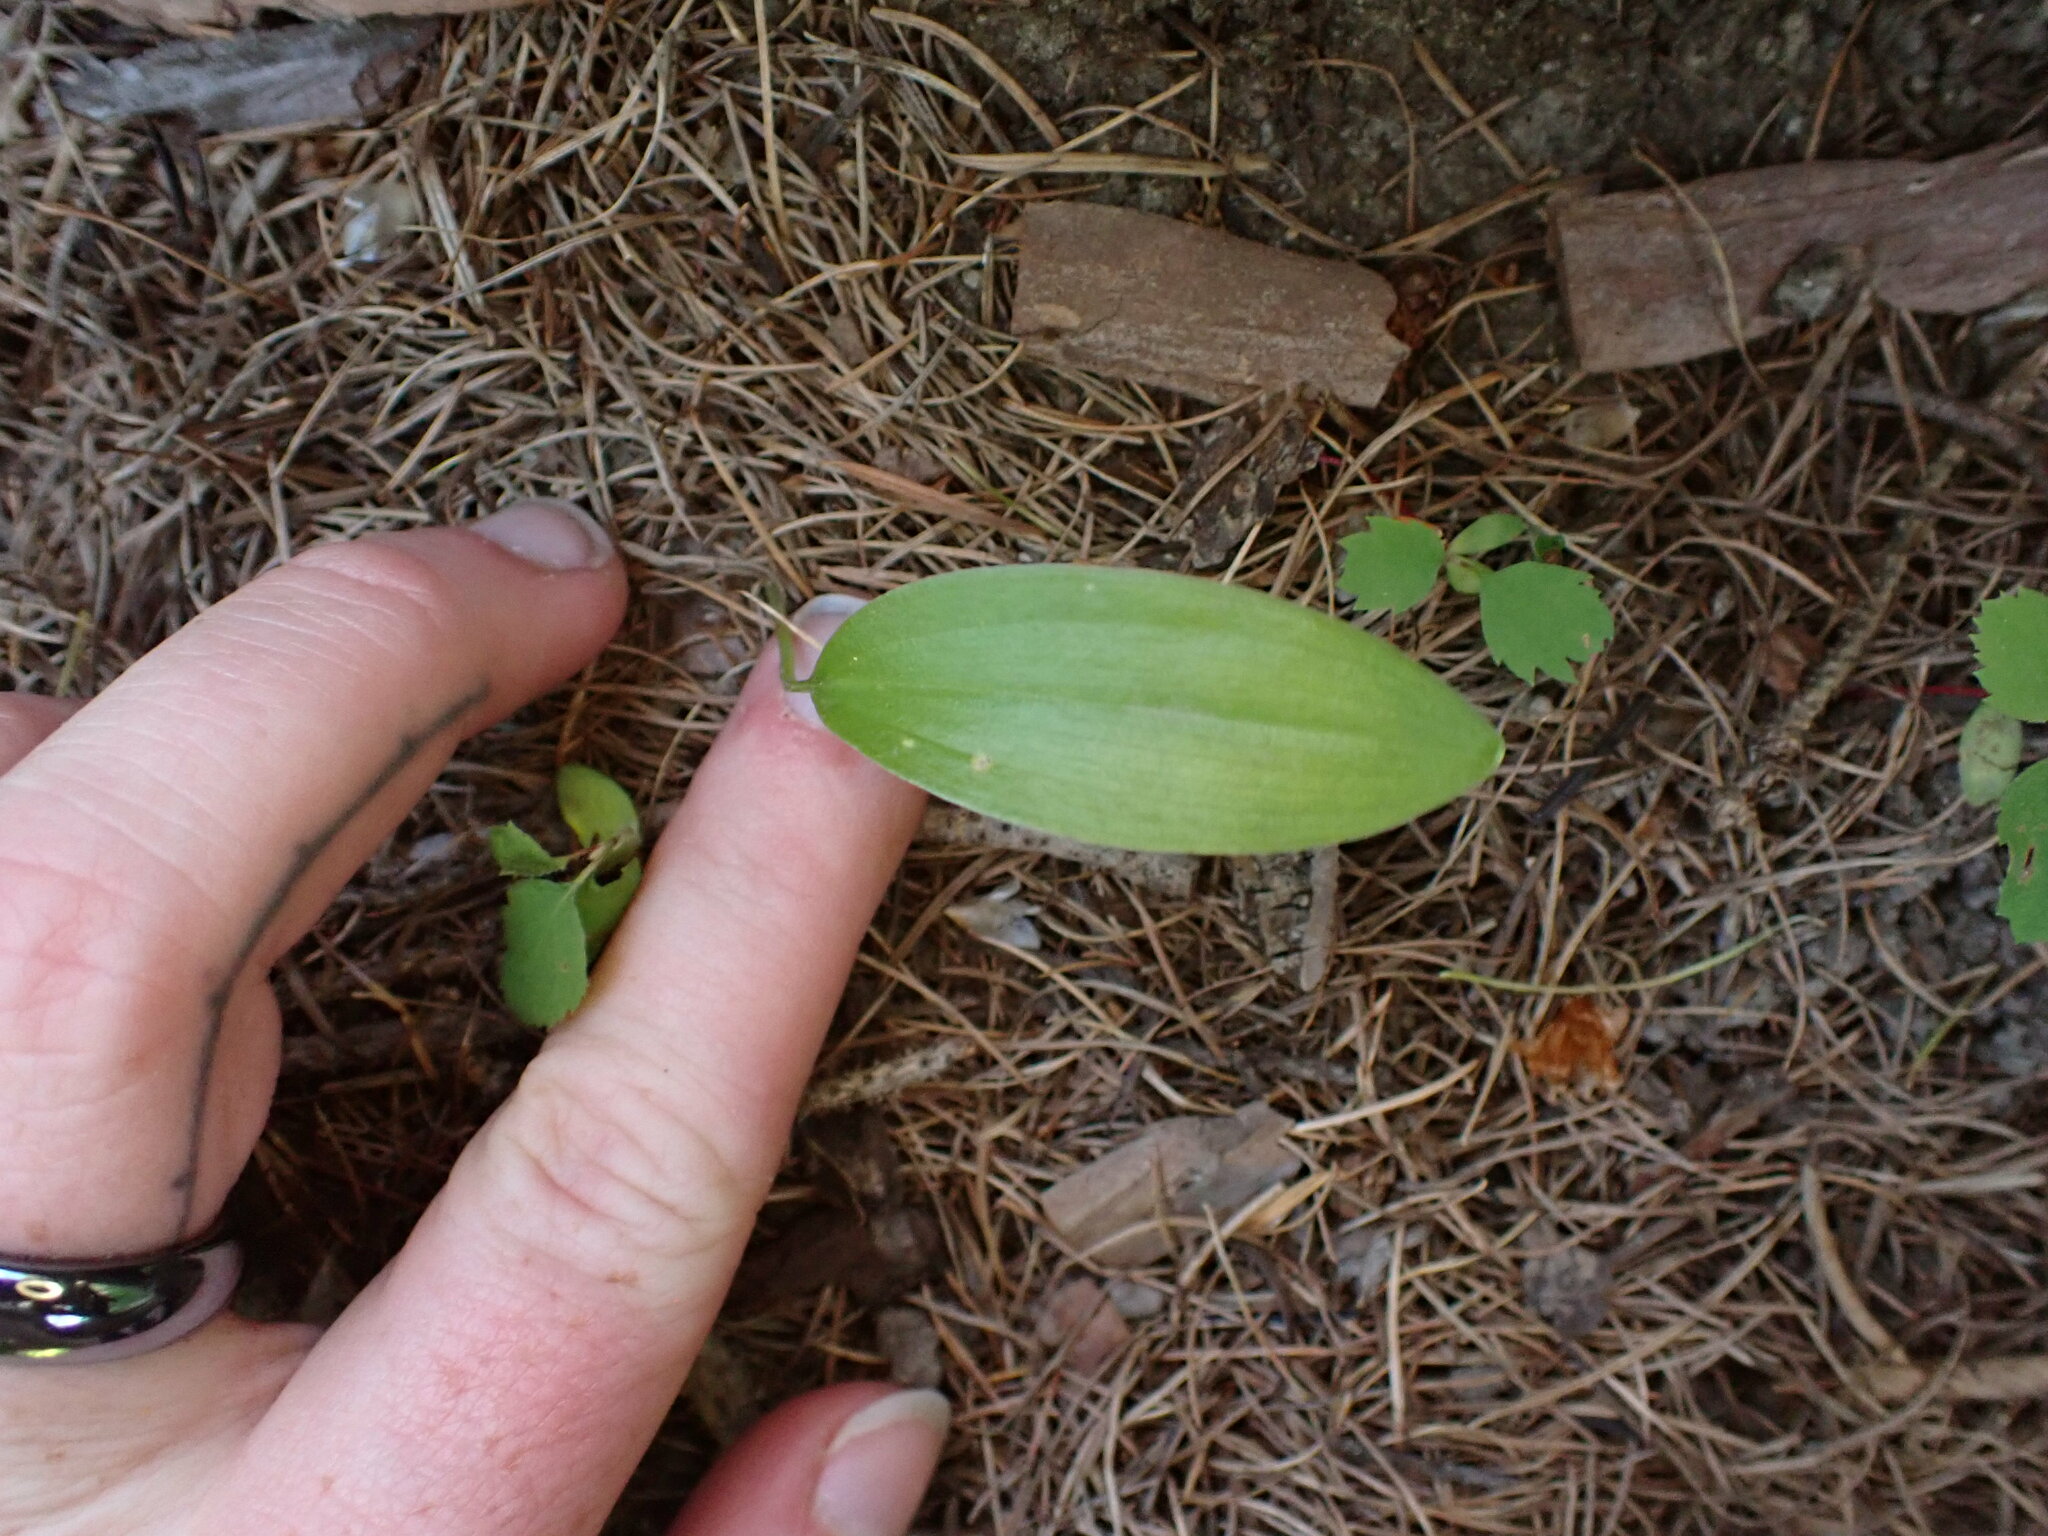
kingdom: Plantae
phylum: Tracheophyta
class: Liliopsida
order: Liliales
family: Liliaceae
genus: Clintonia
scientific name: Clintonia uniflora
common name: Queen's cup
